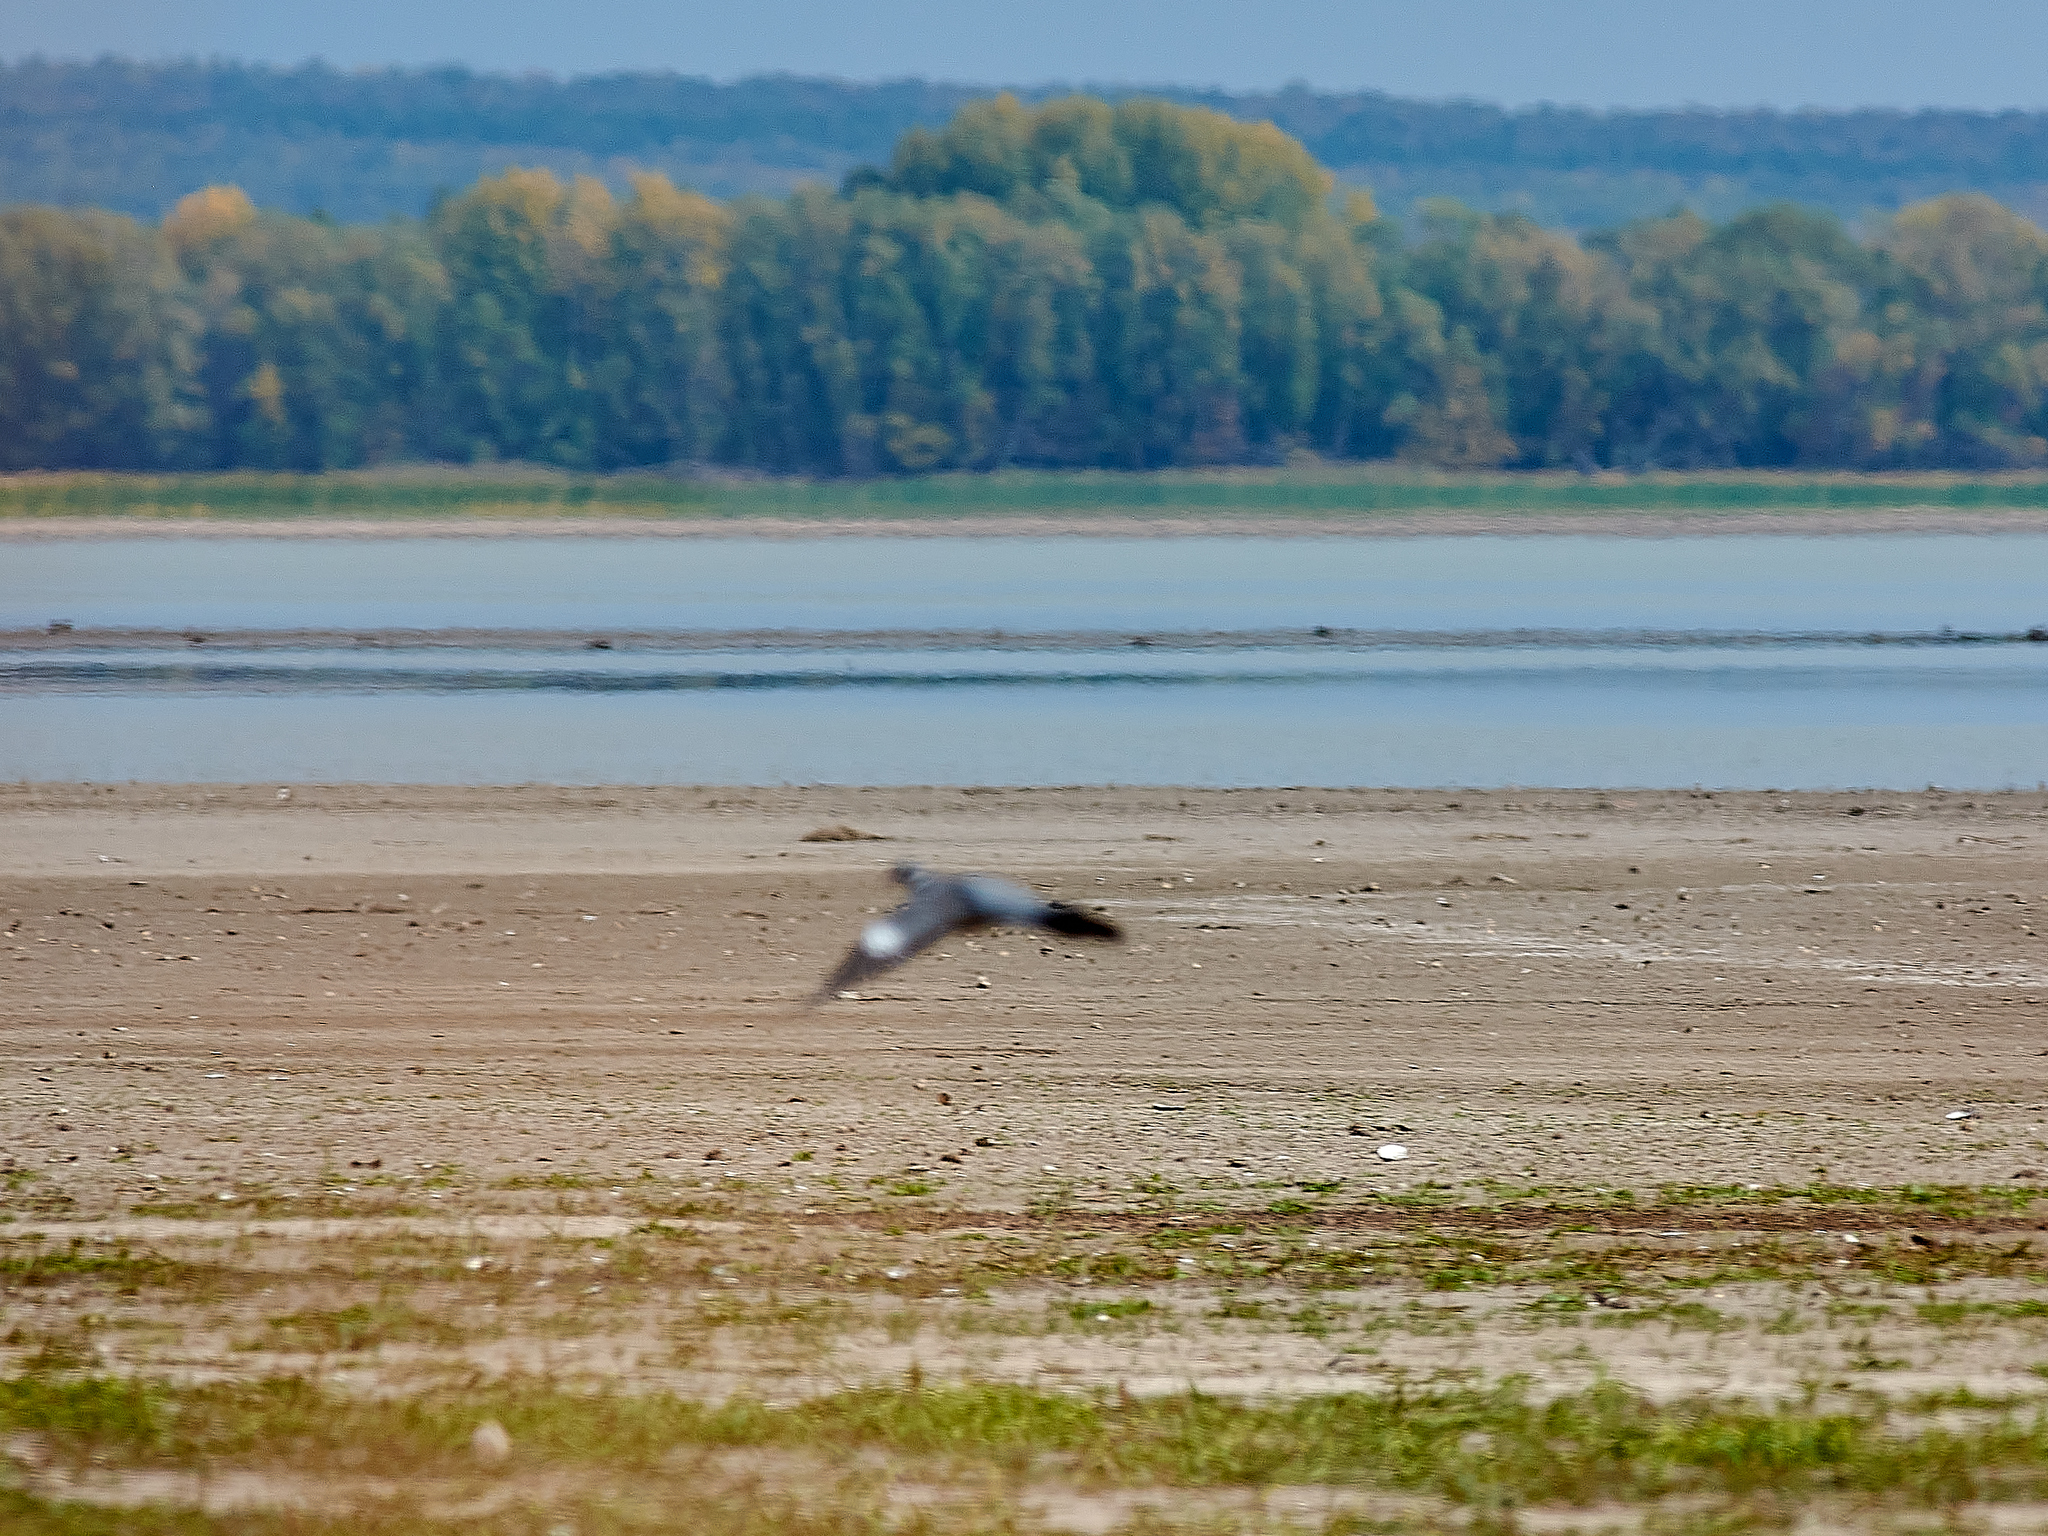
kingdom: Animalia
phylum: Chordata
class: Aves
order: Columbiformes
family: Columbidae
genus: Columba
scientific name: Columba palumbus
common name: Common wood pigeon
